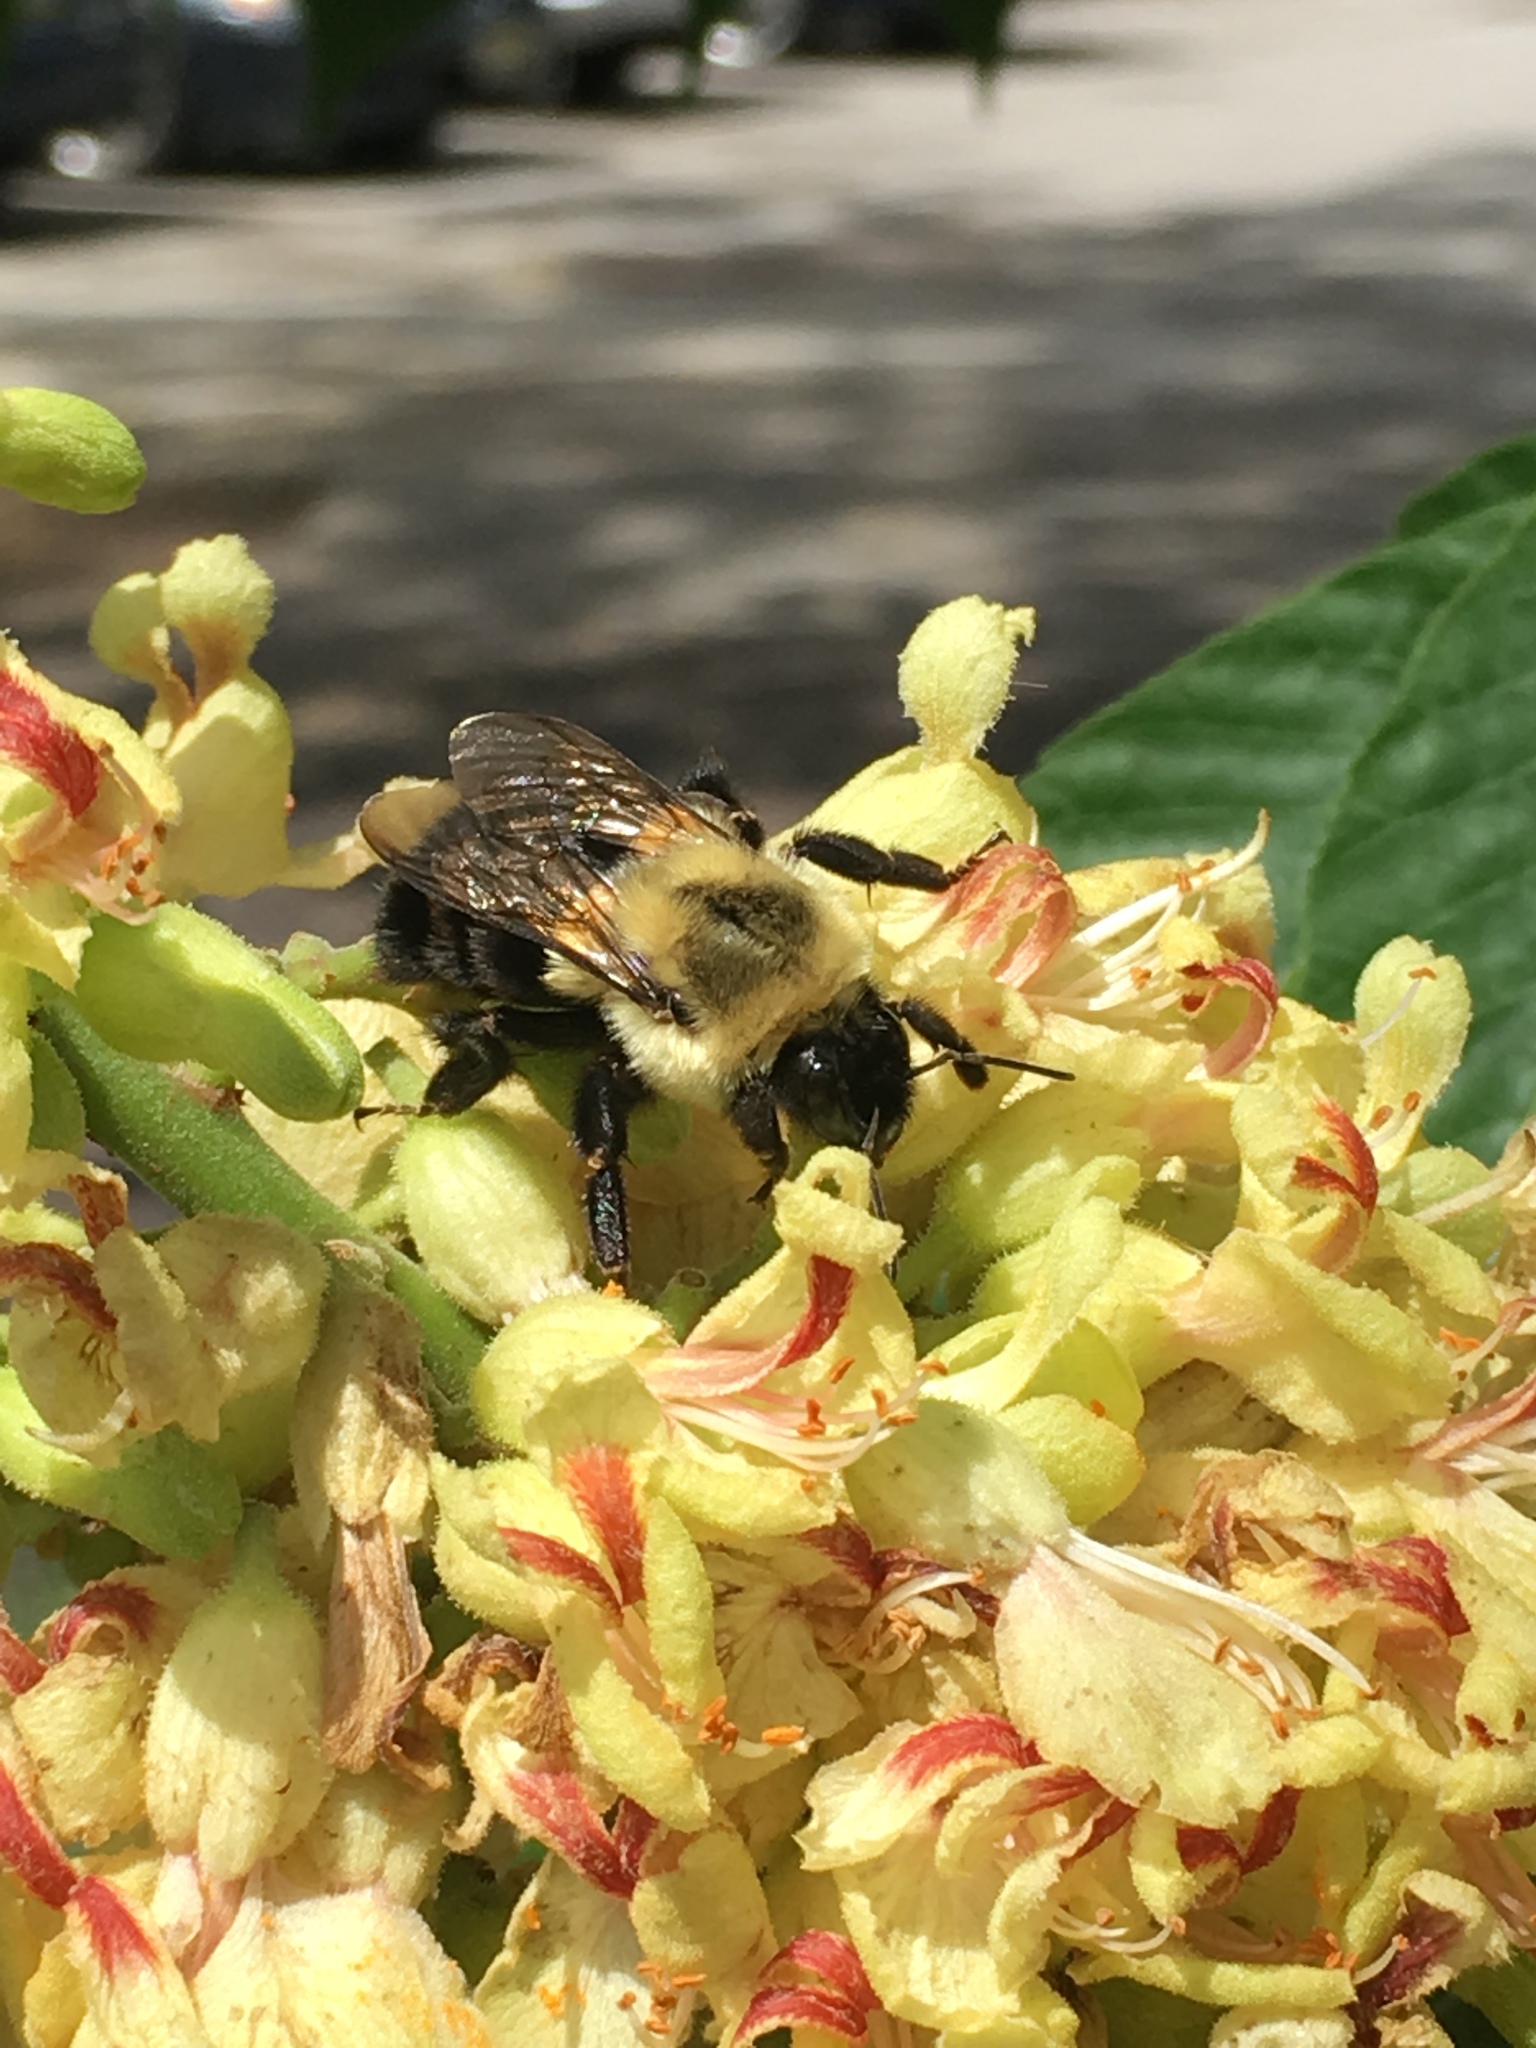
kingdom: Animalia
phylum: Arthropoda
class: Insecta
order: Hymenoptera
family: Apidae
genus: Bombus
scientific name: Bombus impatiens
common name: Common eastern bumble bee
